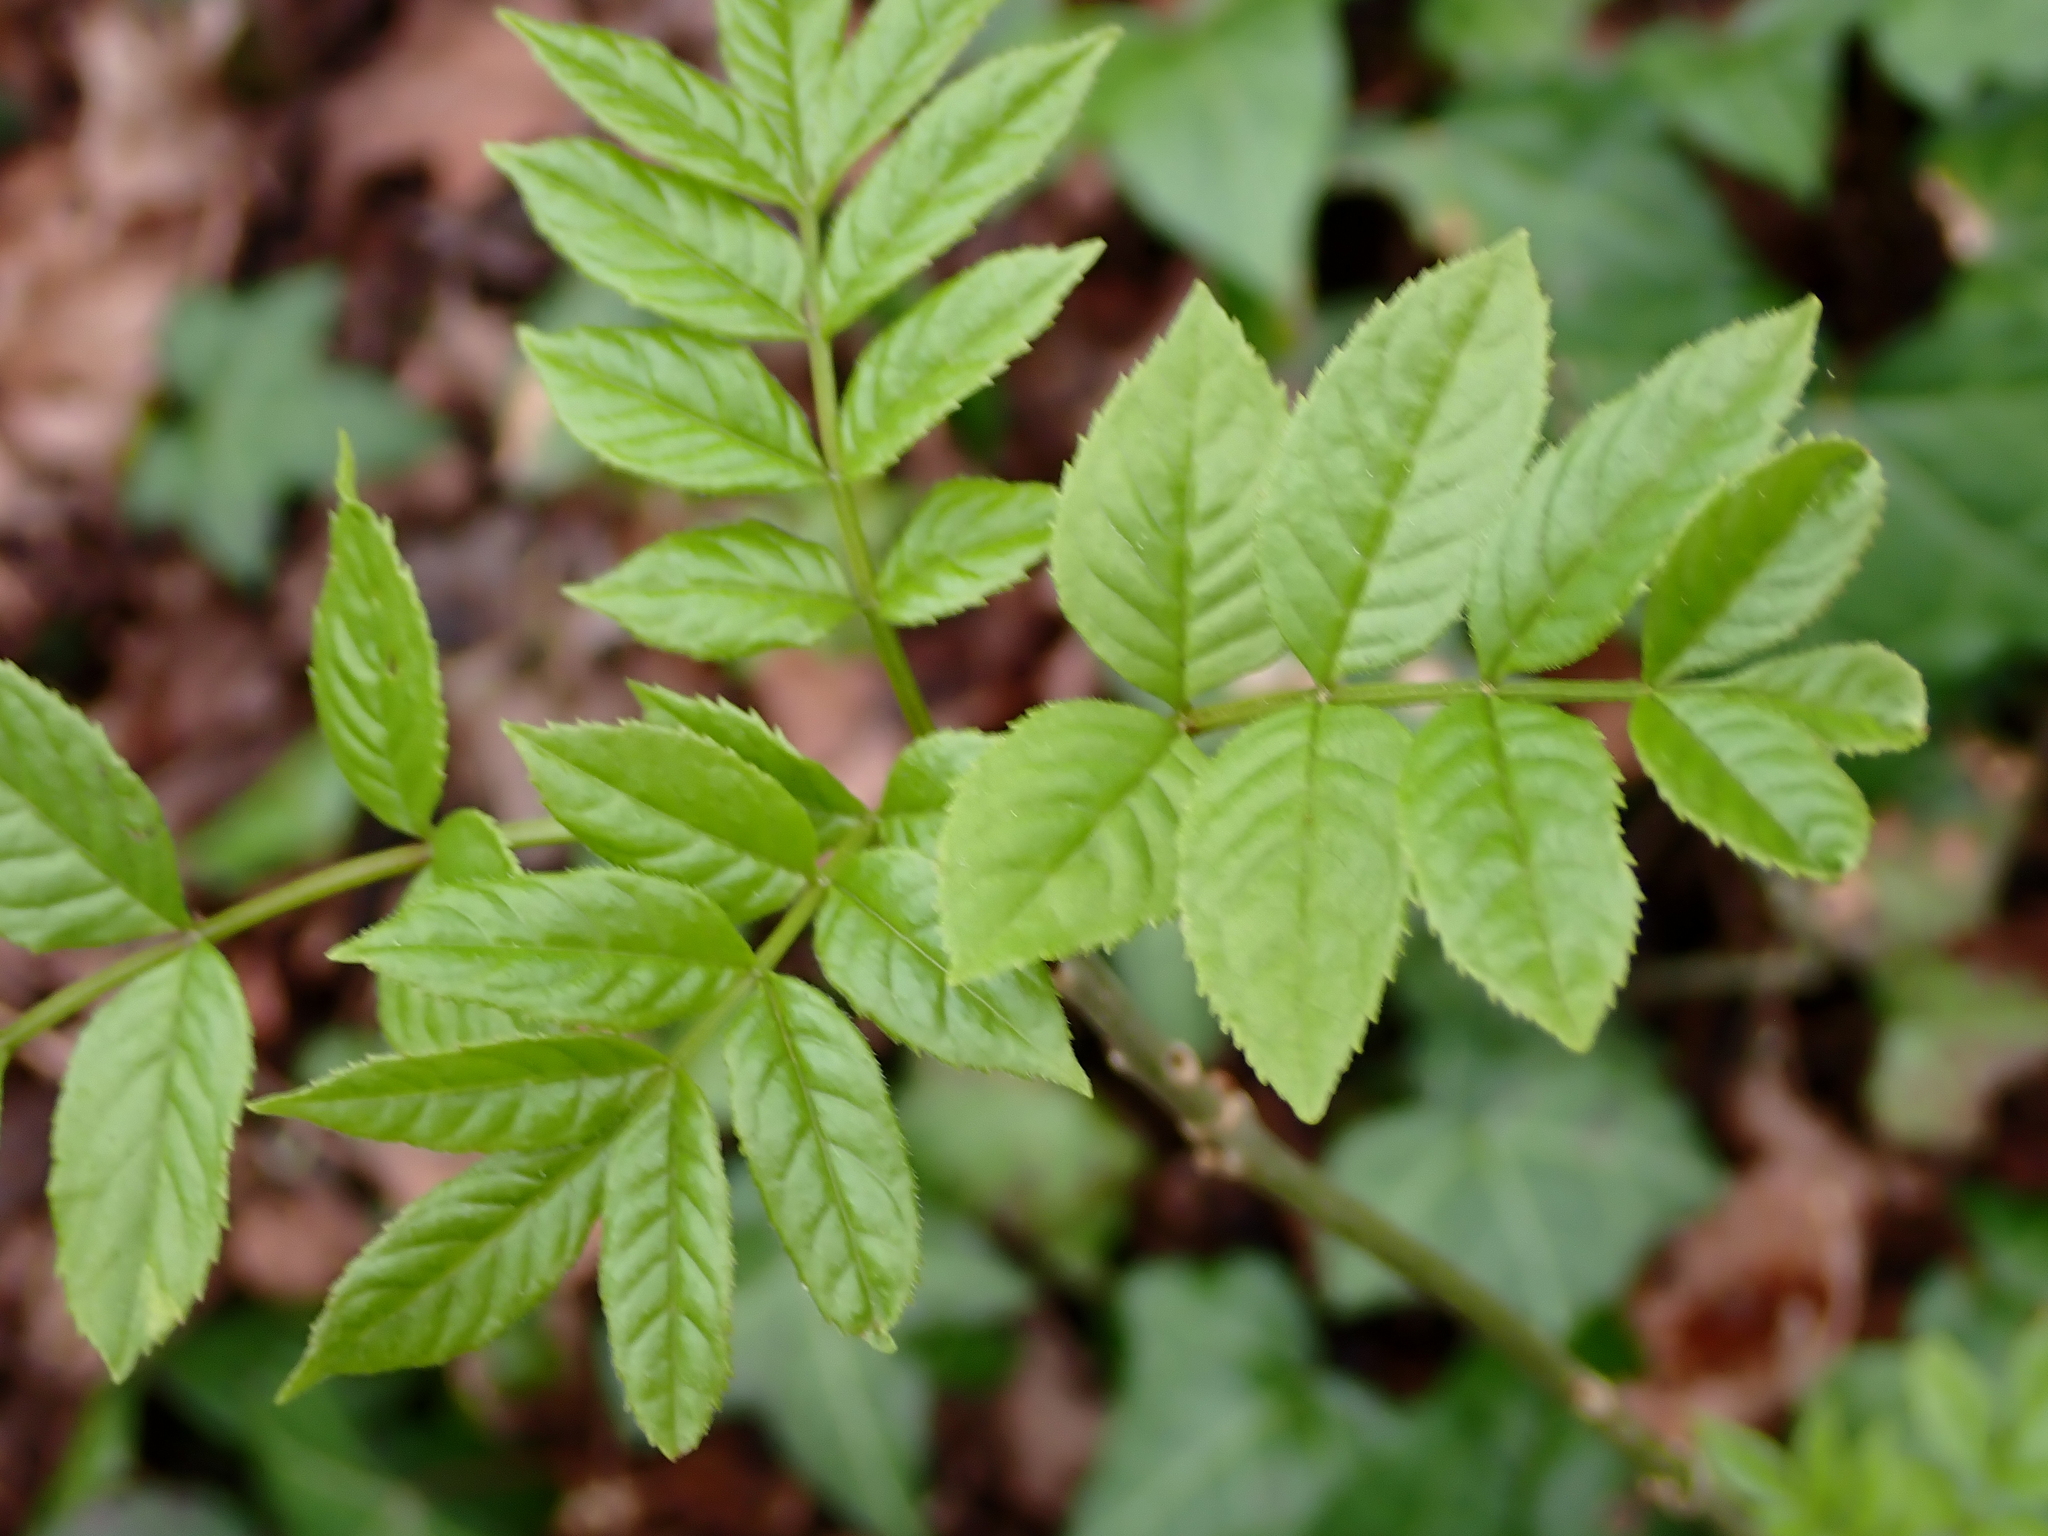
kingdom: Plantae
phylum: Tracheophyta
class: Magnoliopsida
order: Lamiales
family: Oleaceae
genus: Fraxinus
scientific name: Fraxinus excelsior
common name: European ash
